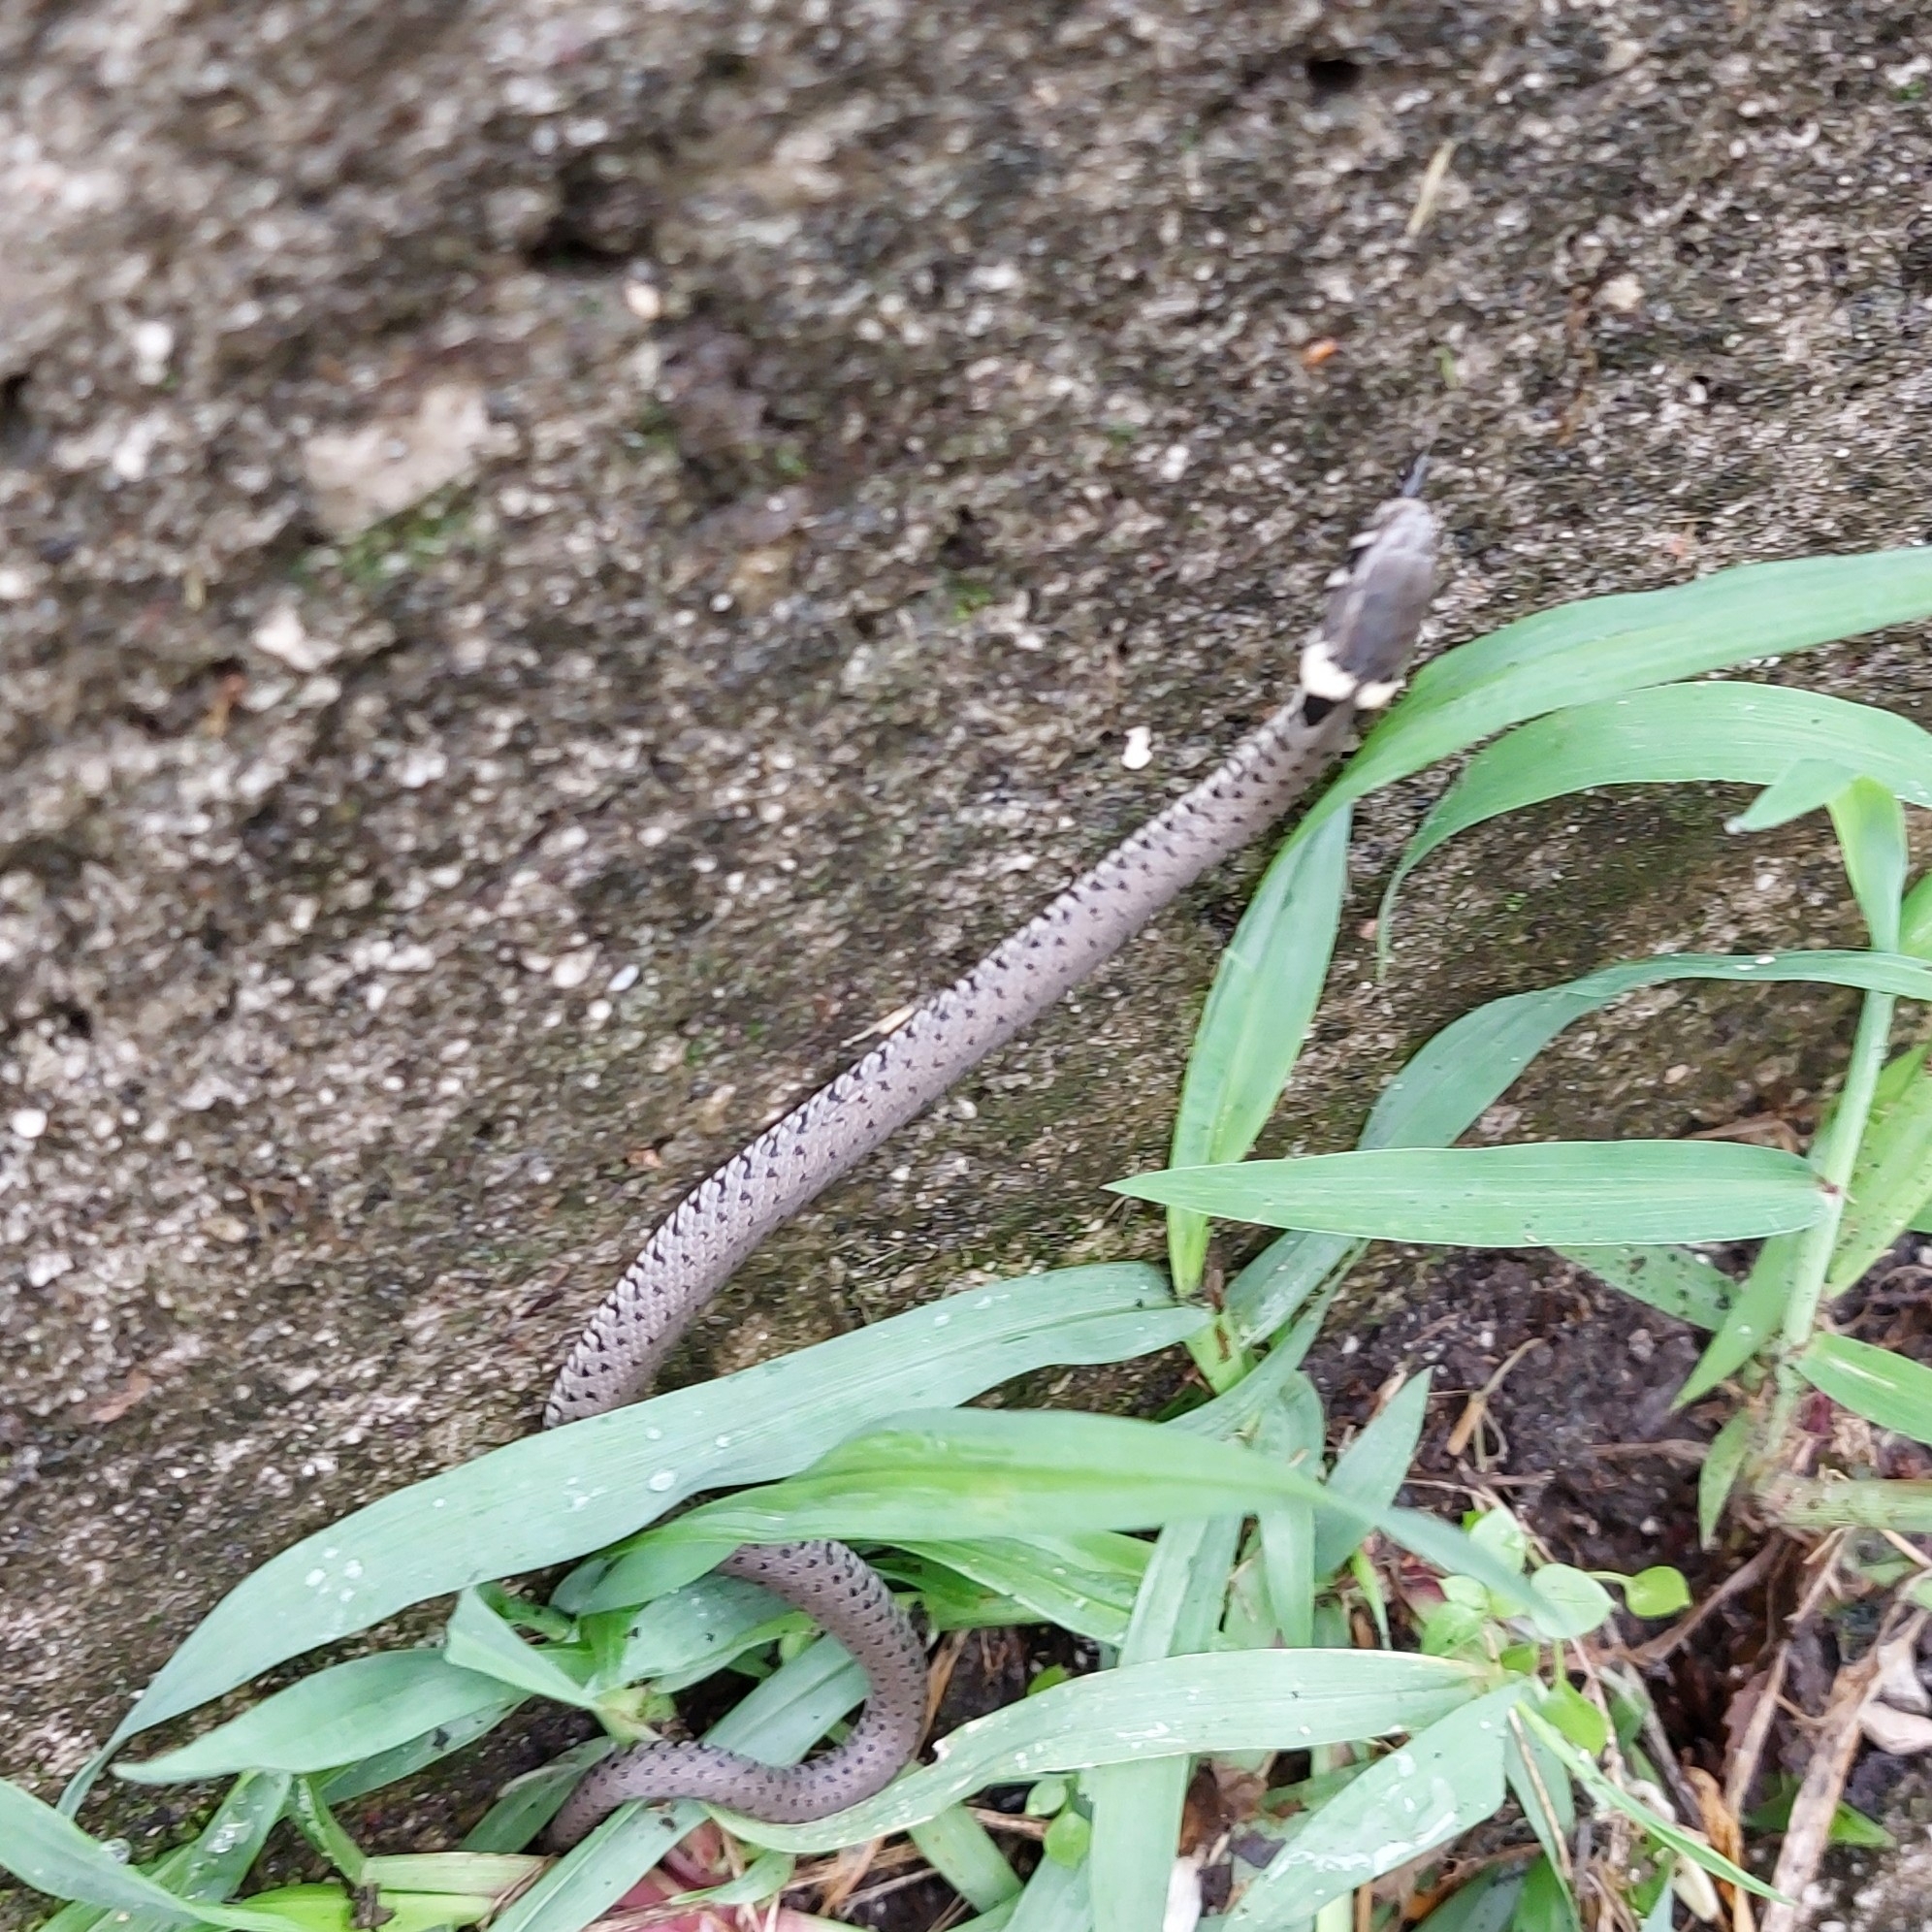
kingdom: Animalia
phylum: Chordata
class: Squamata
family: Colubridae
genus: Natrix
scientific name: Natrix helvetica
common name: Banded grass snake
